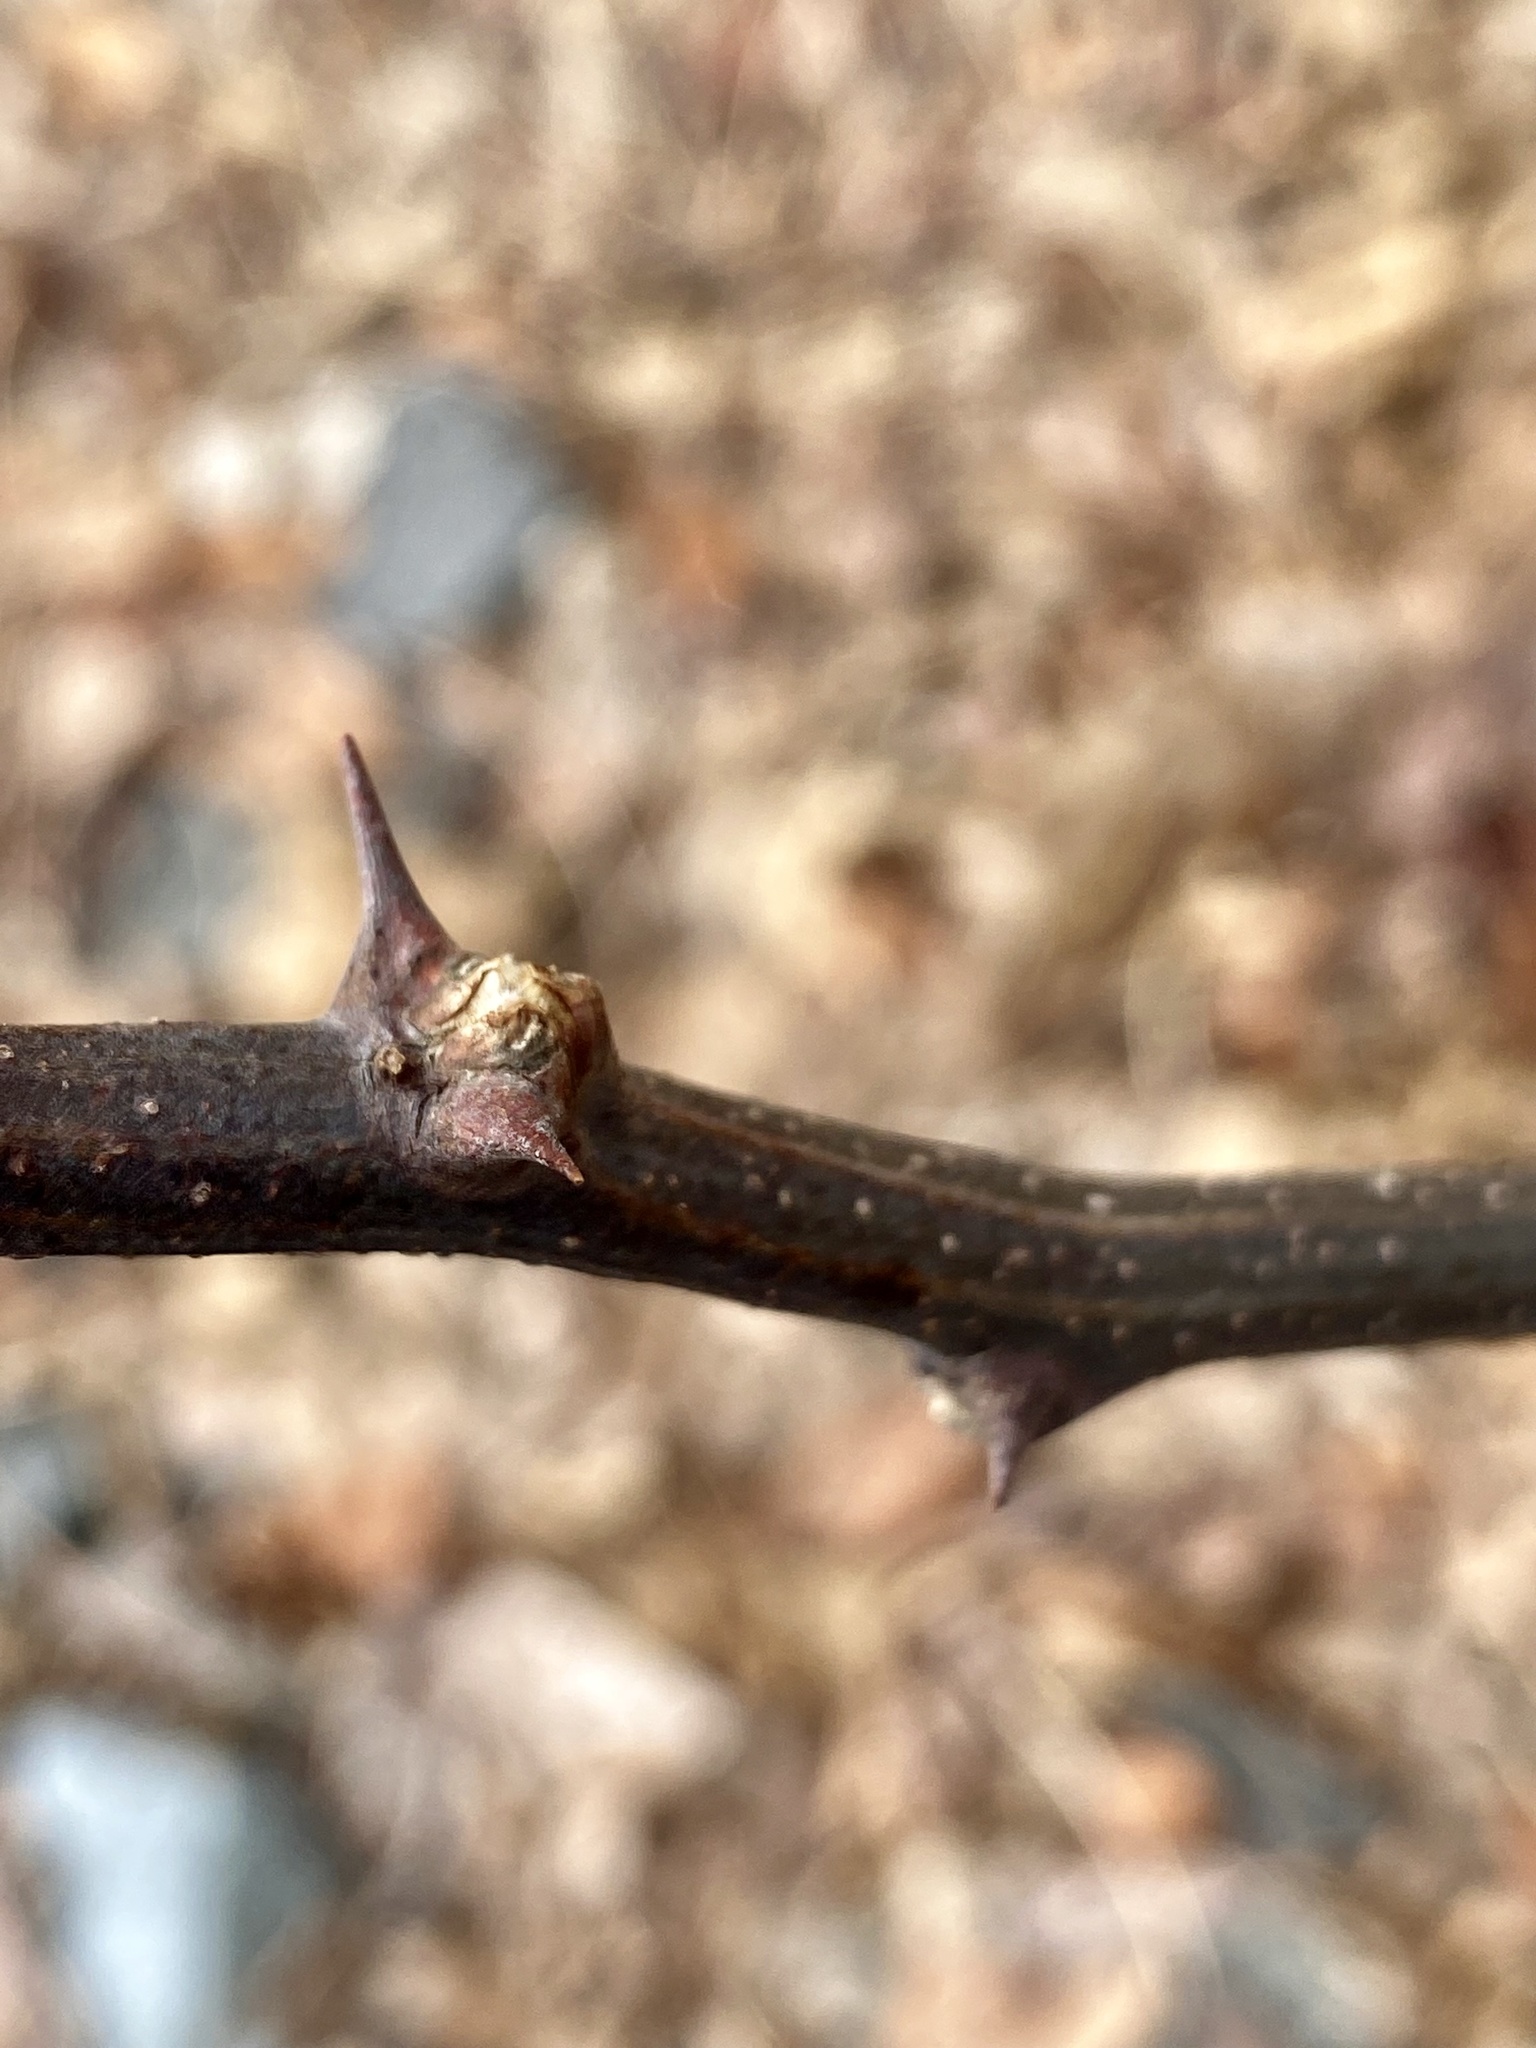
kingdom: Plantae
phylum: Tracheophyta
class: Magnoliopsida
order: Fabales
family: Fabaceae
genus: Robinia
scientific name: Robinia pseudoacacia
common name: Black locust
